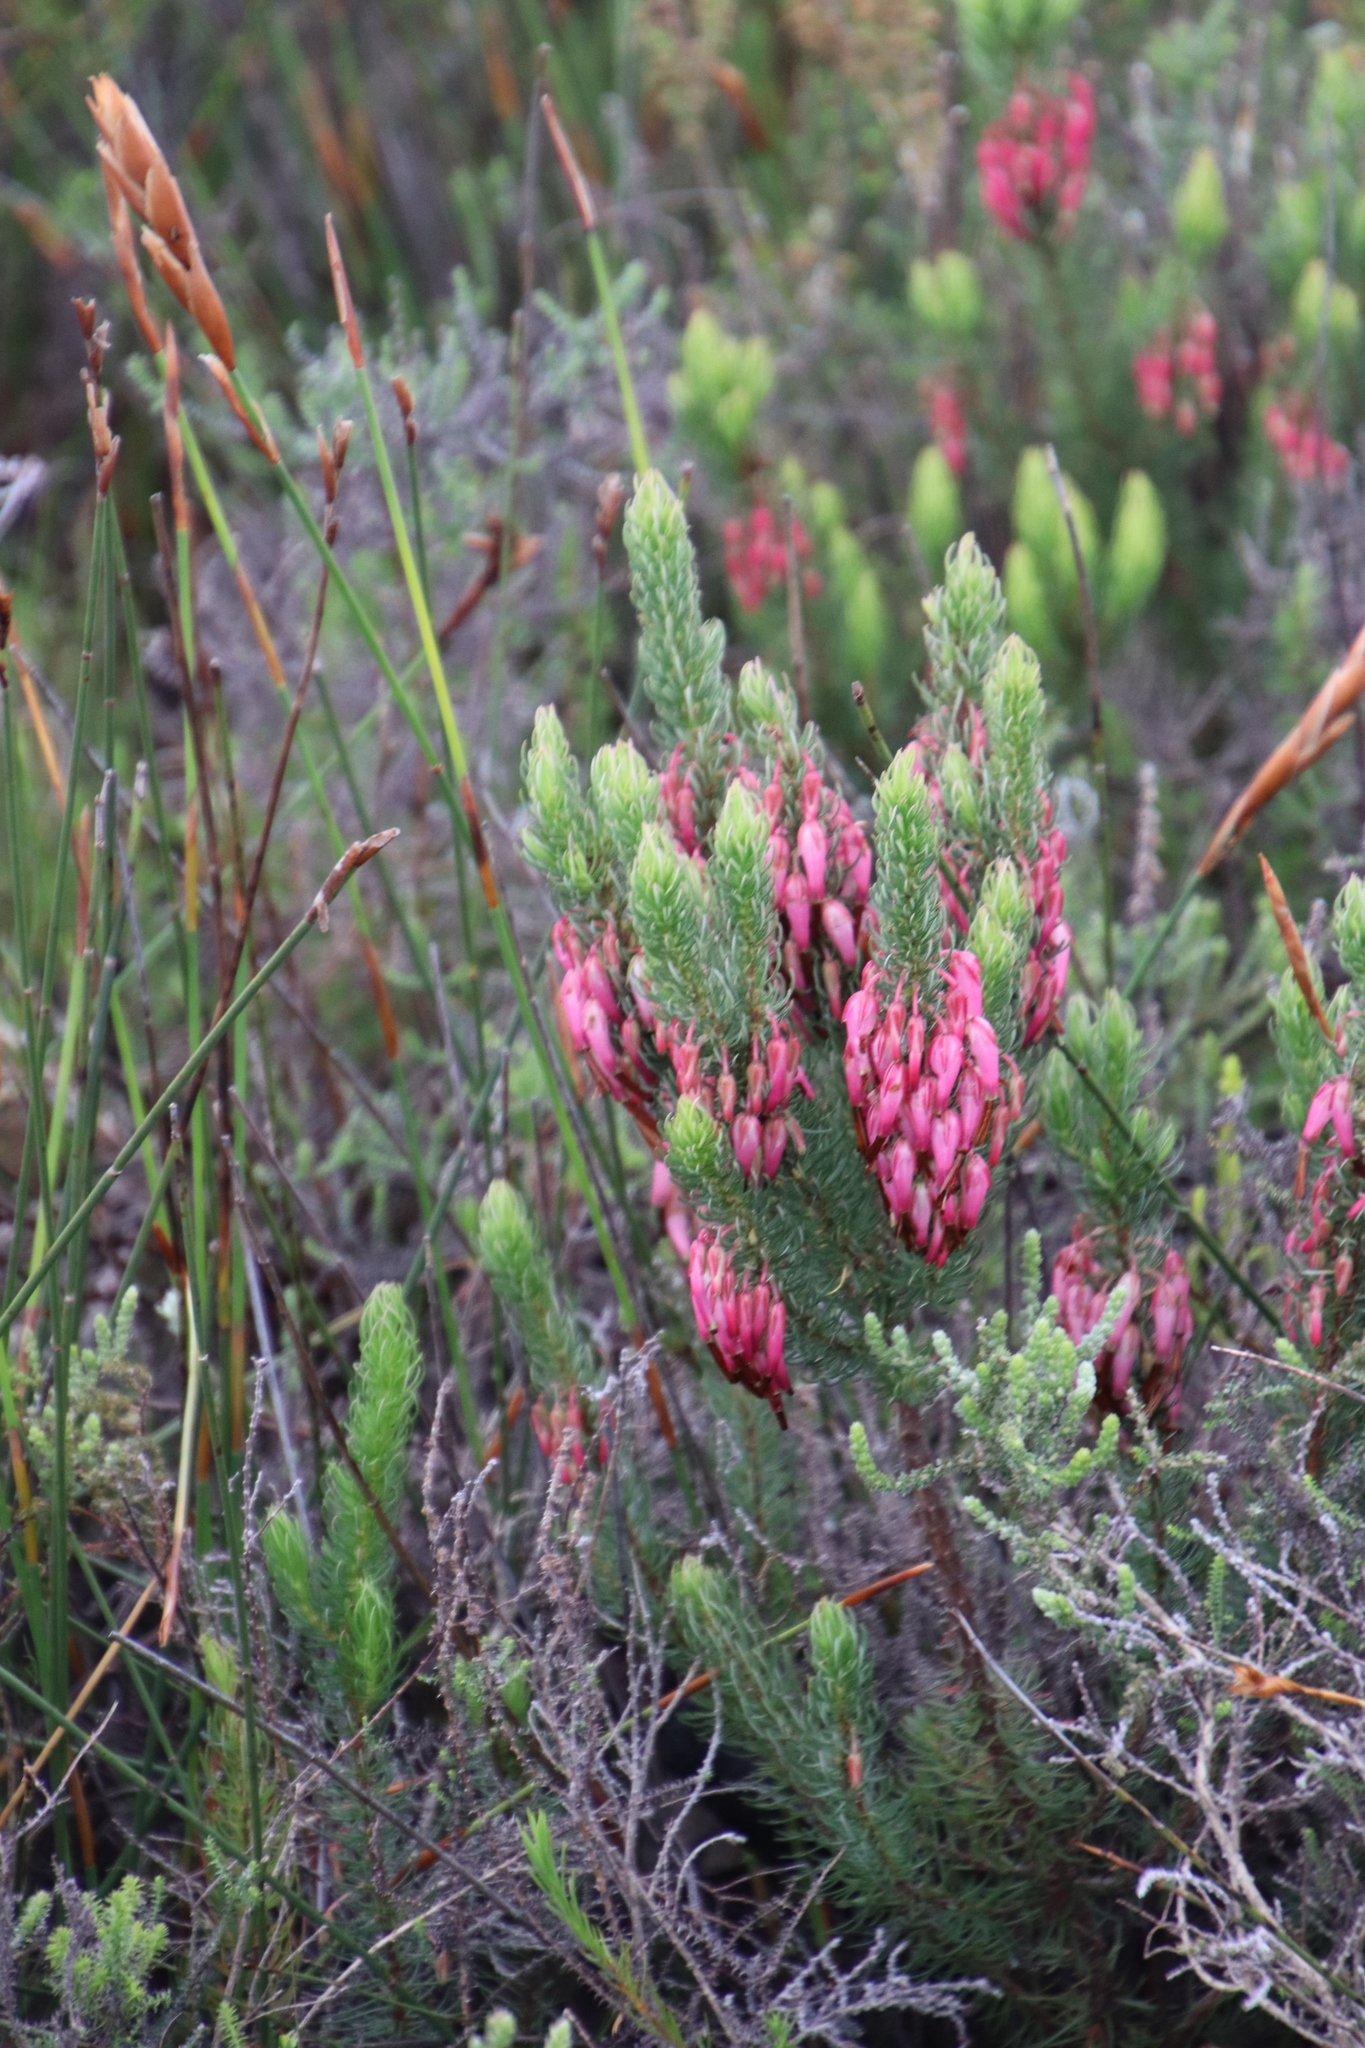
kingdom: Plantae
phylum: Tracheophyta
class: Magnoliopsida
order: Ericales
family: Ericaceae
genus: Erica
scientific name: Erica plukenetii
